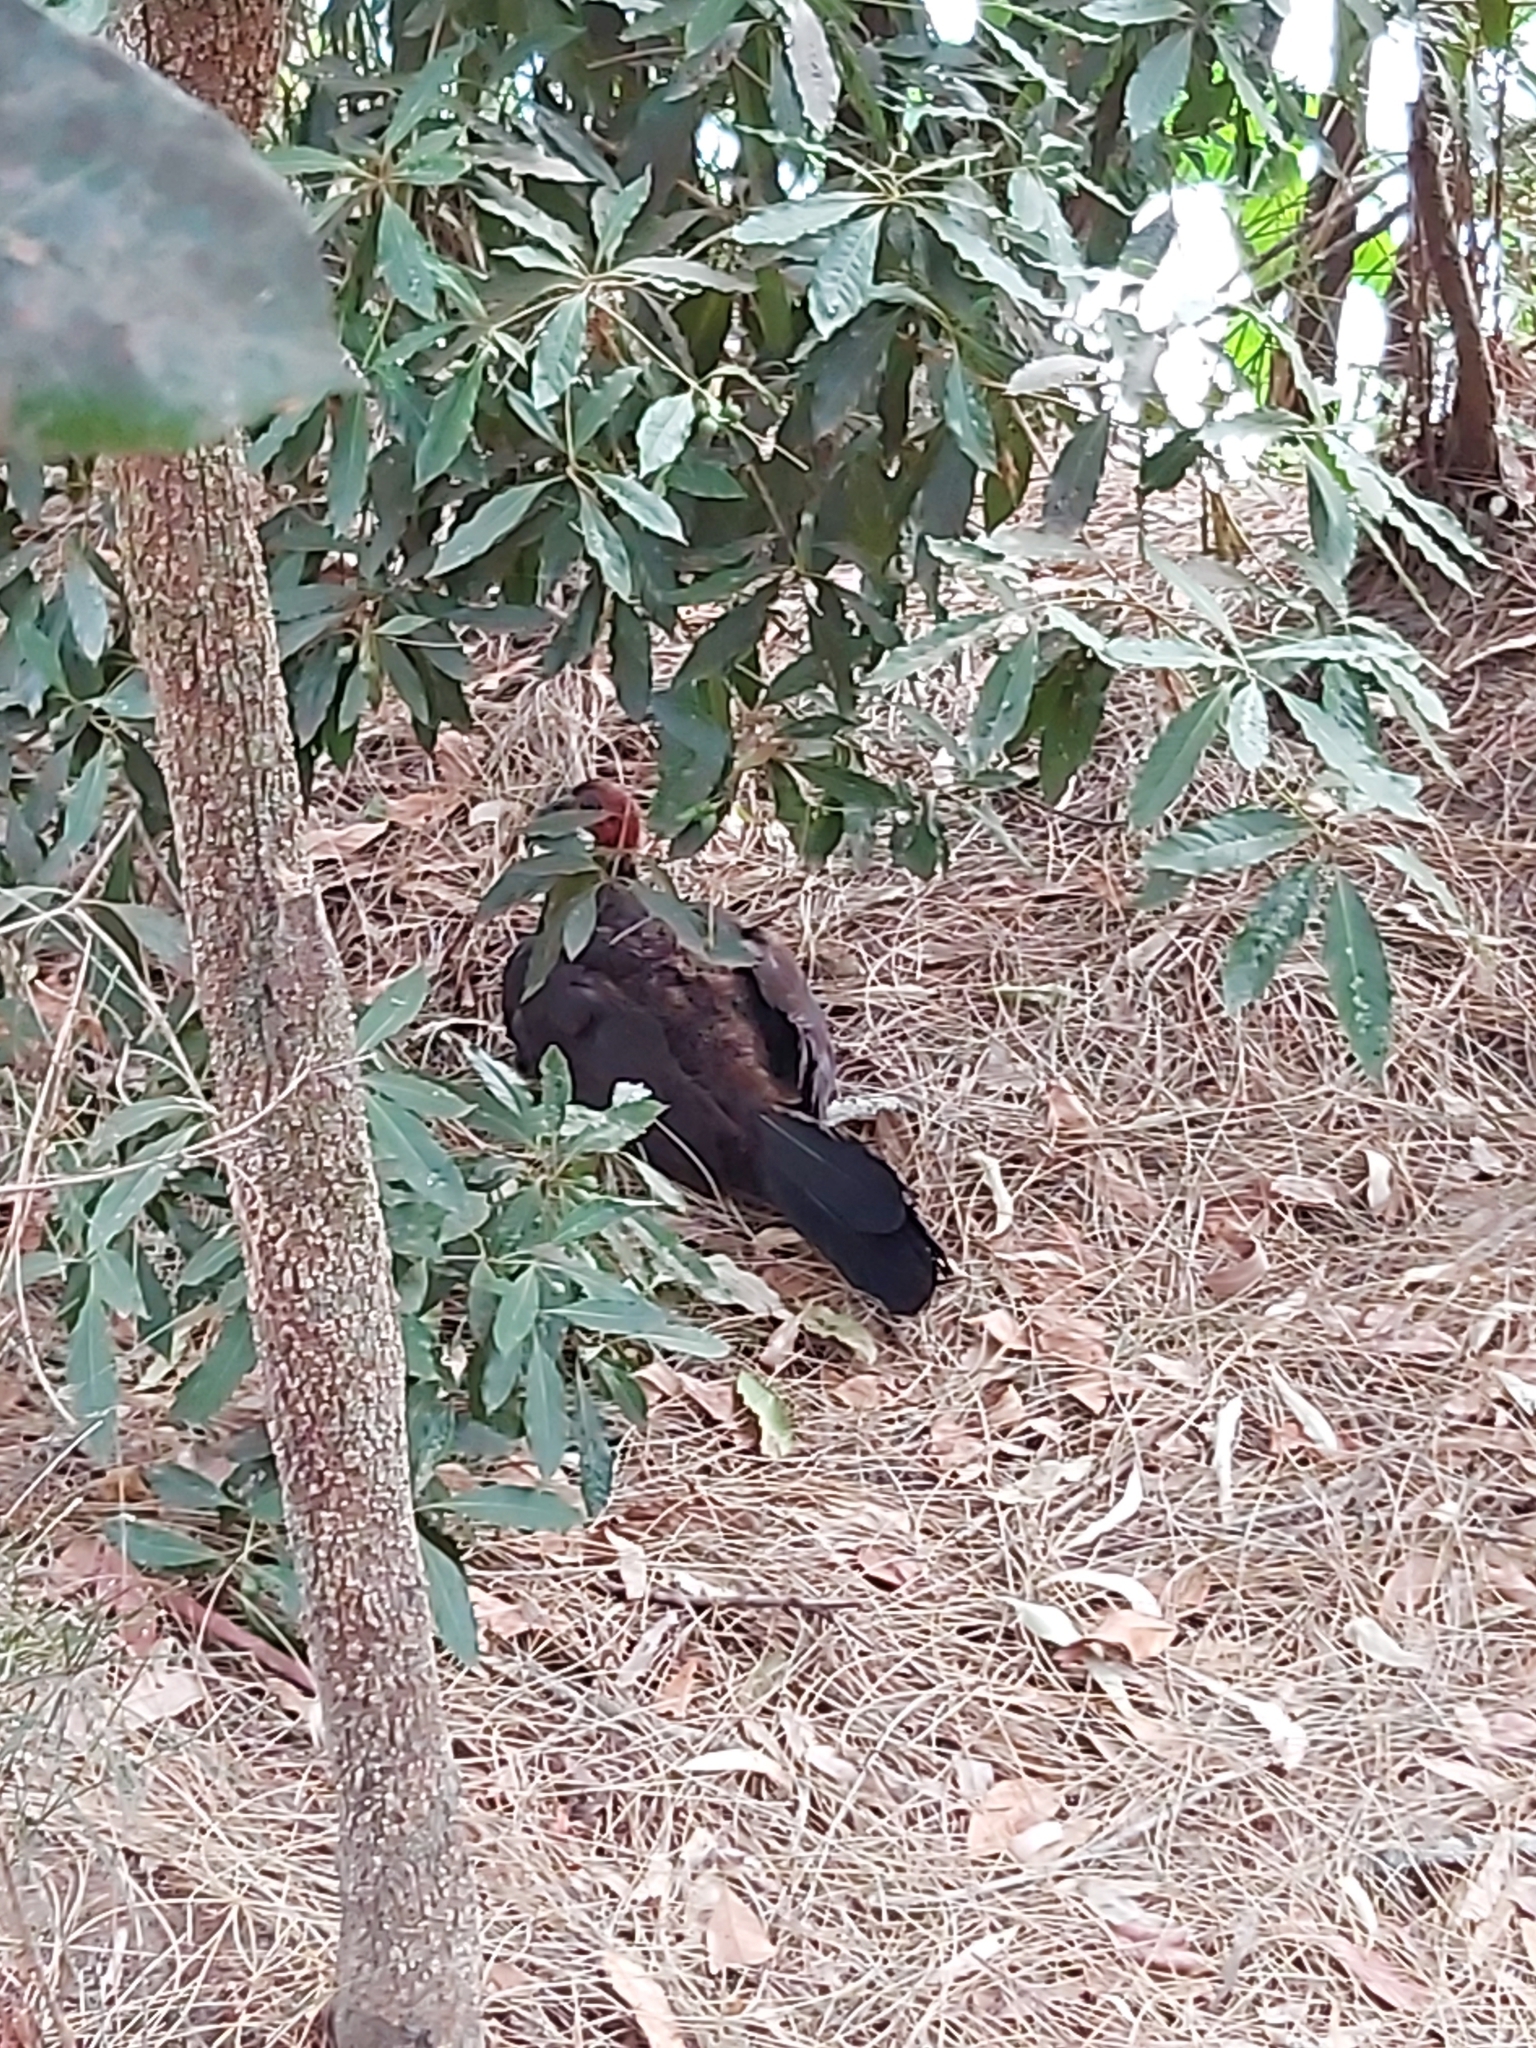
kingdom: Animalia
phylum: Chordata
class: Aves
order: Galliformes
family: Megapodiidae
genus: Alectura
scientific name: Alectura lathami
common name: Australian brushturkey
